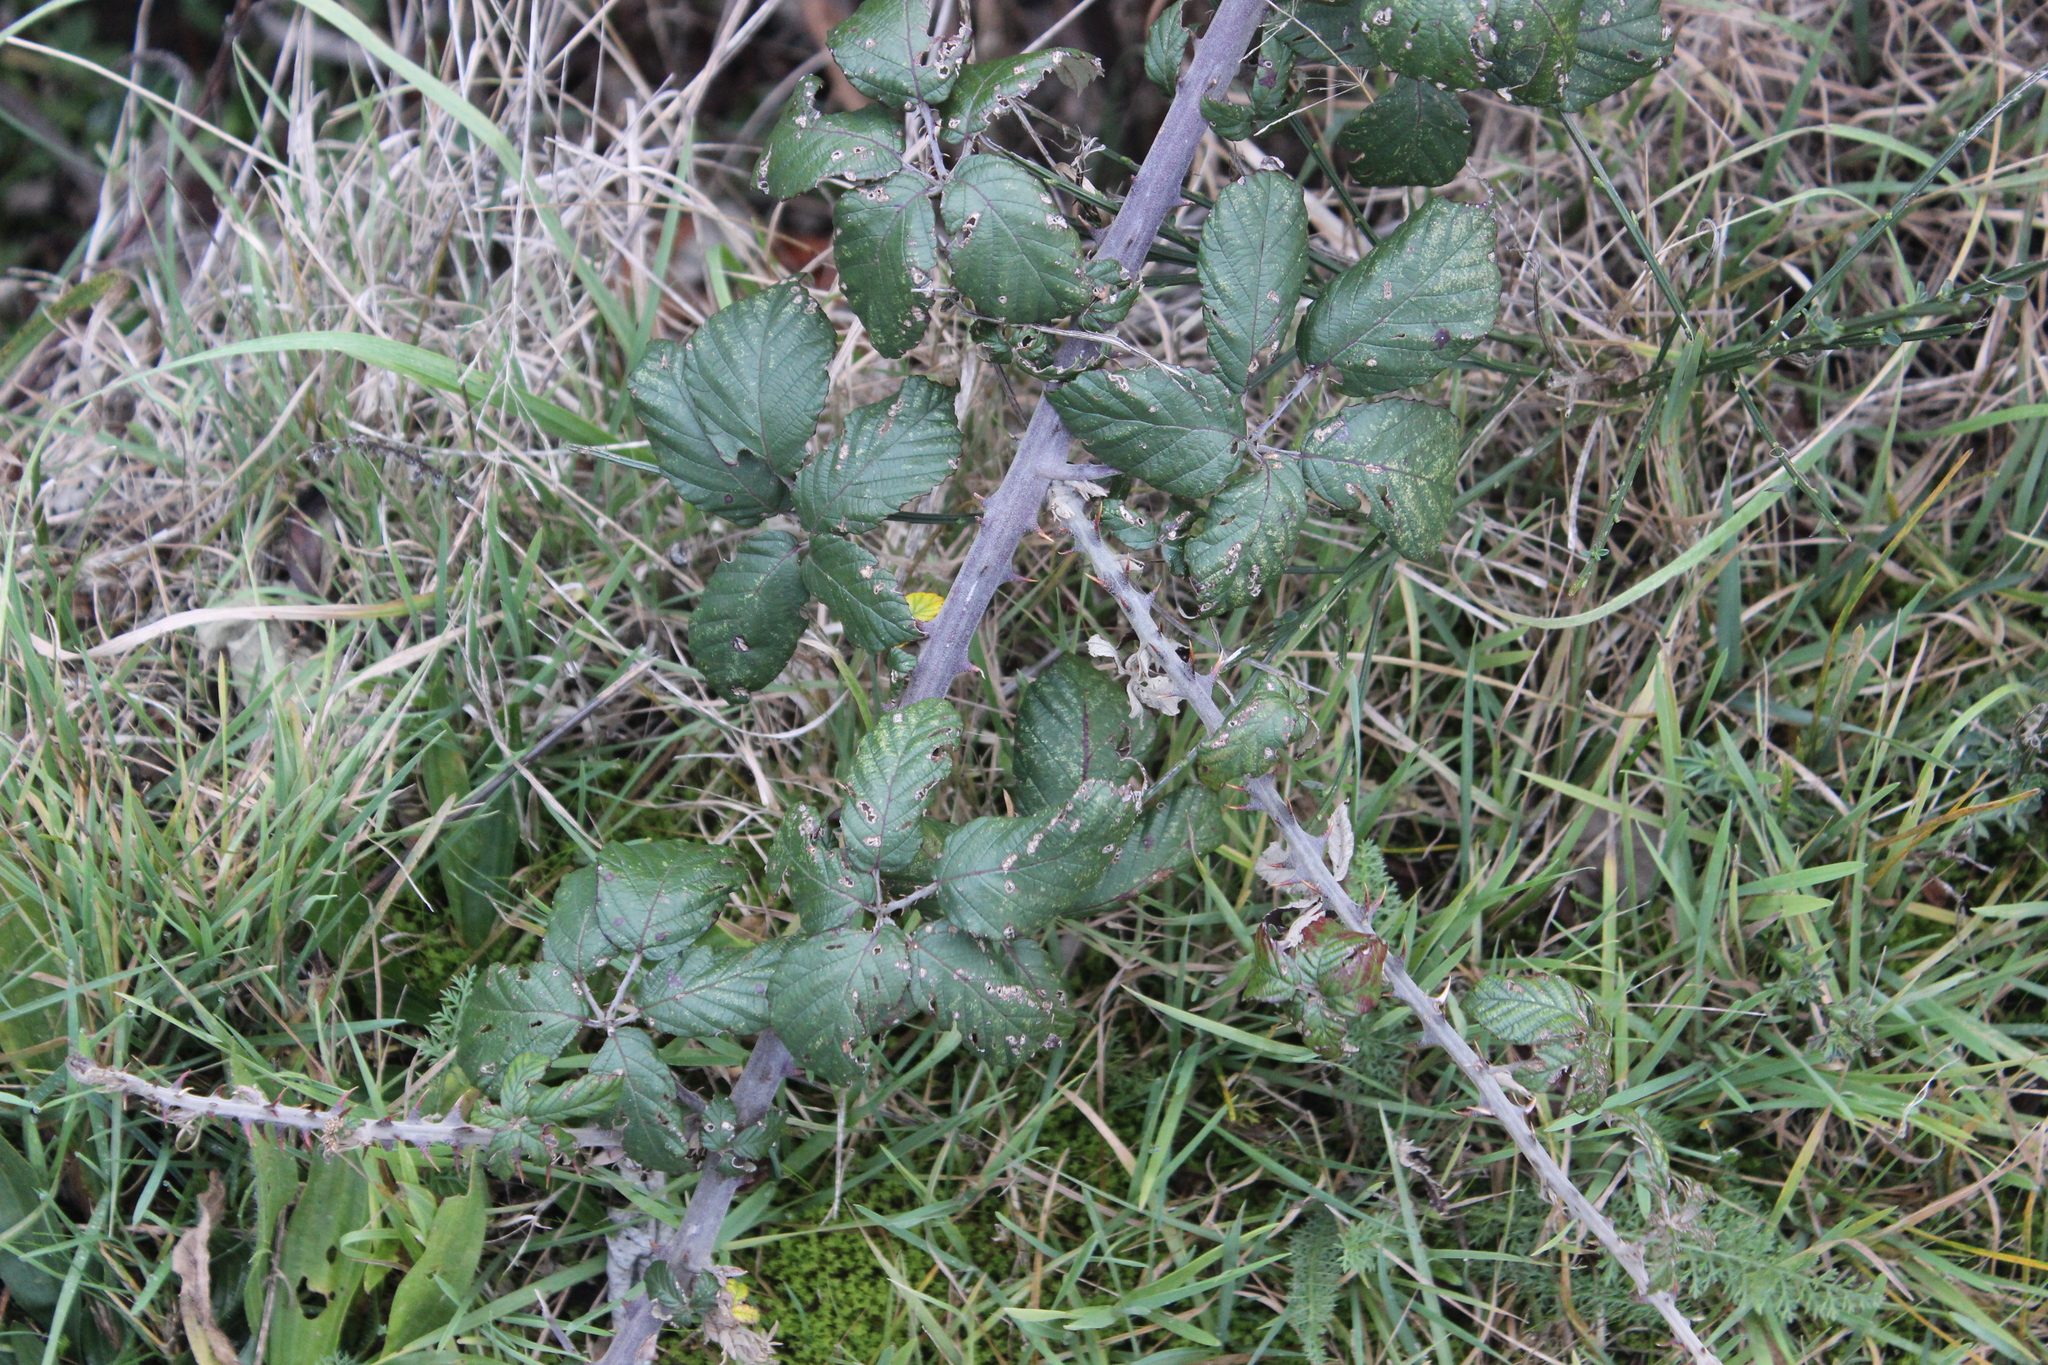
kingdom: Plantae
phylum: Tracheophyta
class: Magnoliopsida
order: Rosales
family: Rosaceae
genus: Rubus
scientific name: Rubus ulmifolius
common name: Elmleaf blackberry
